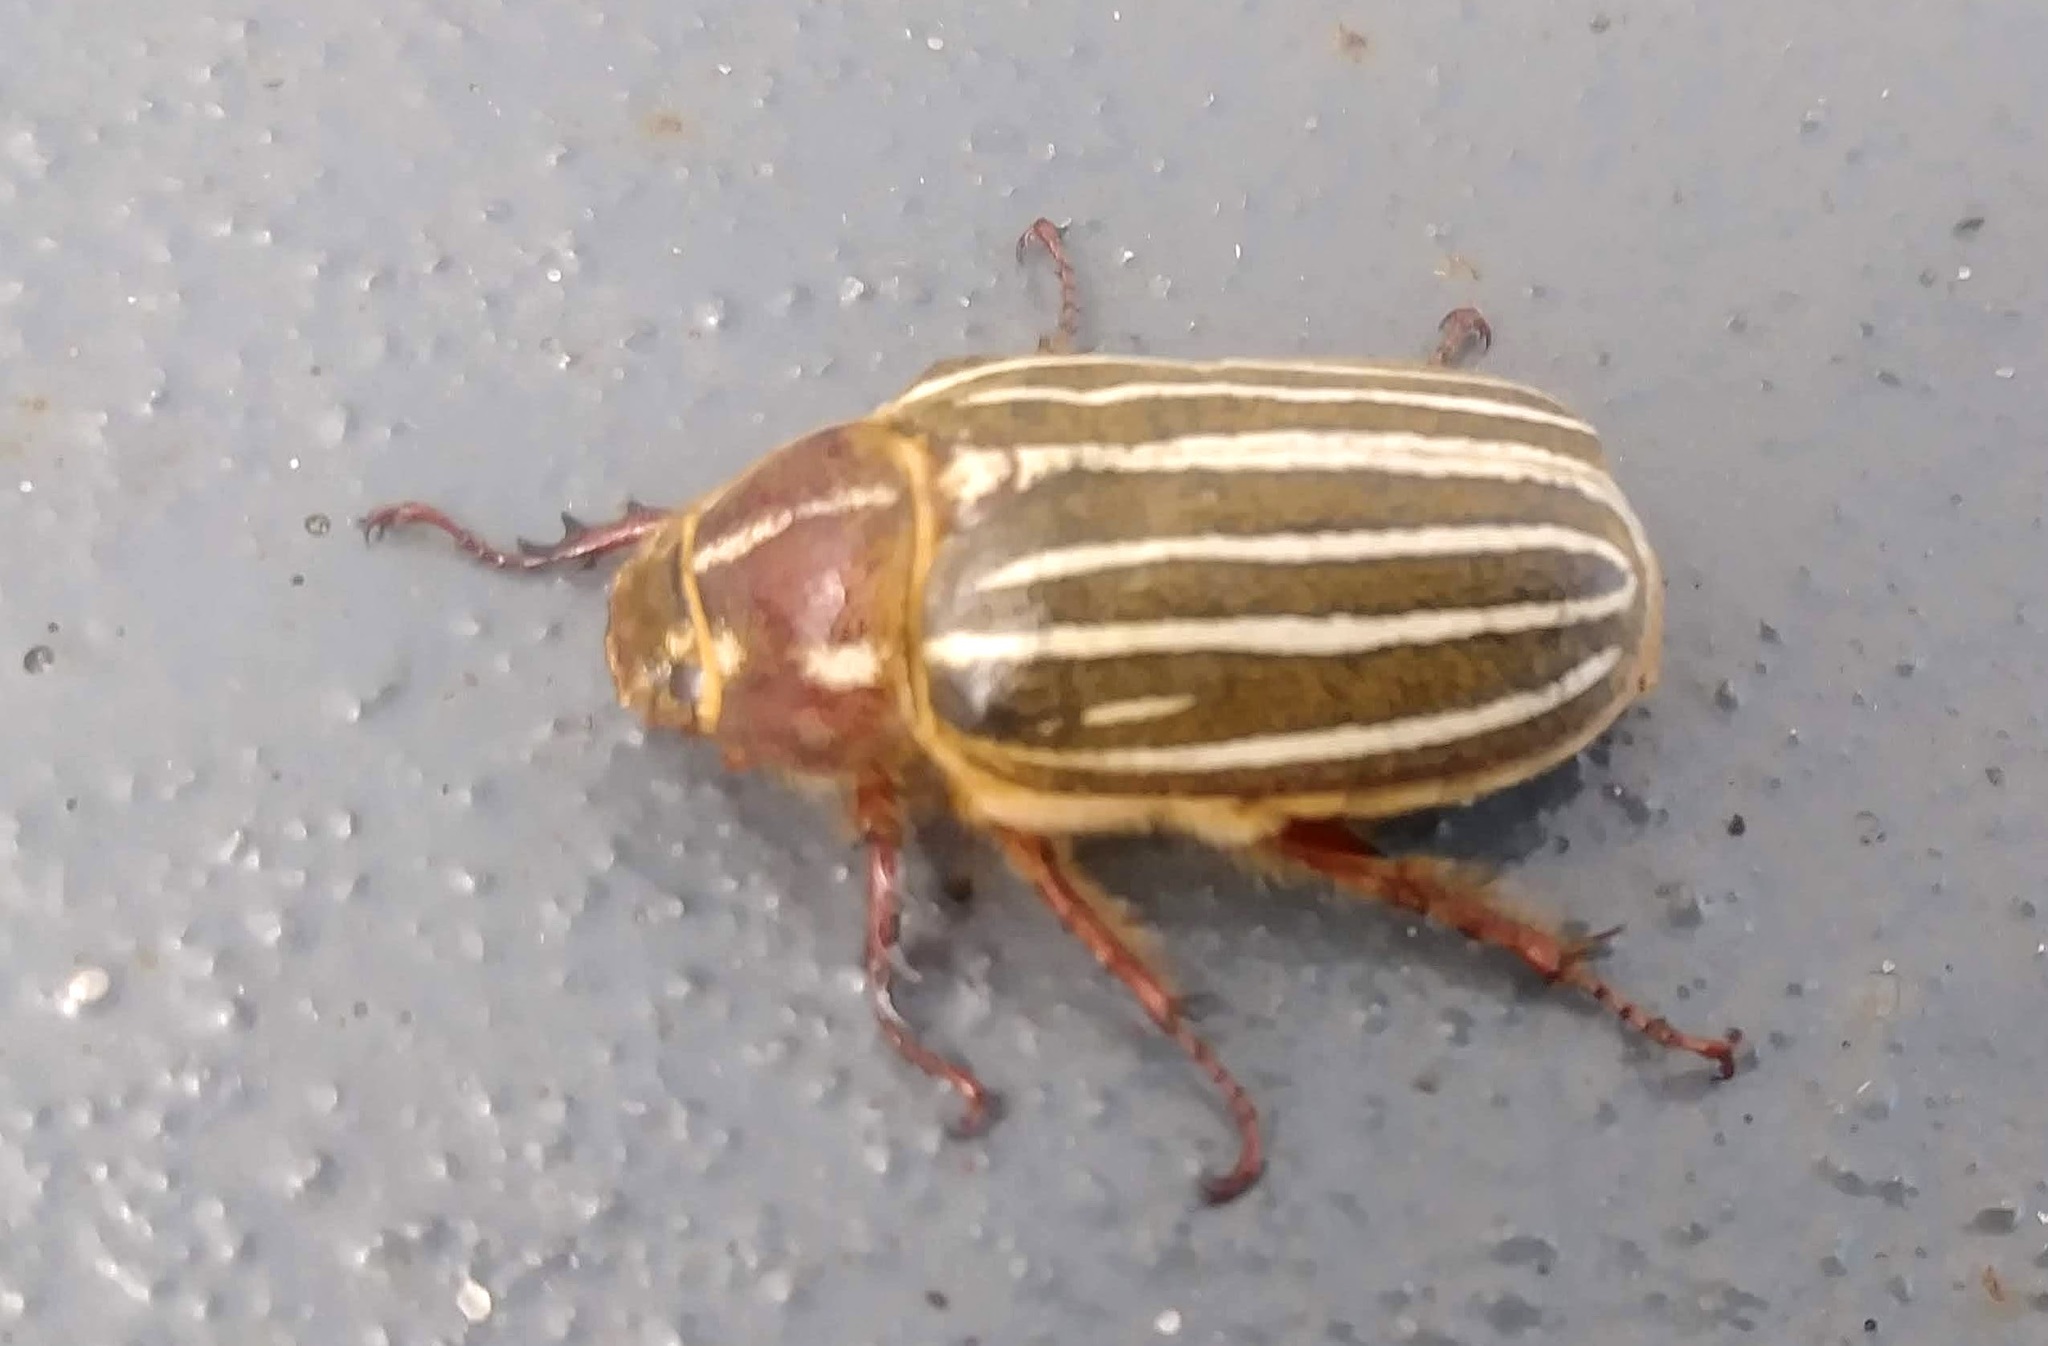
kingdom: Animalia
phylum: Arthropoda
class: Insecta
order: Coleoptera
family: Scarabaeidae
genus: Polyphylla
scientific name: Polyphylla crinita
